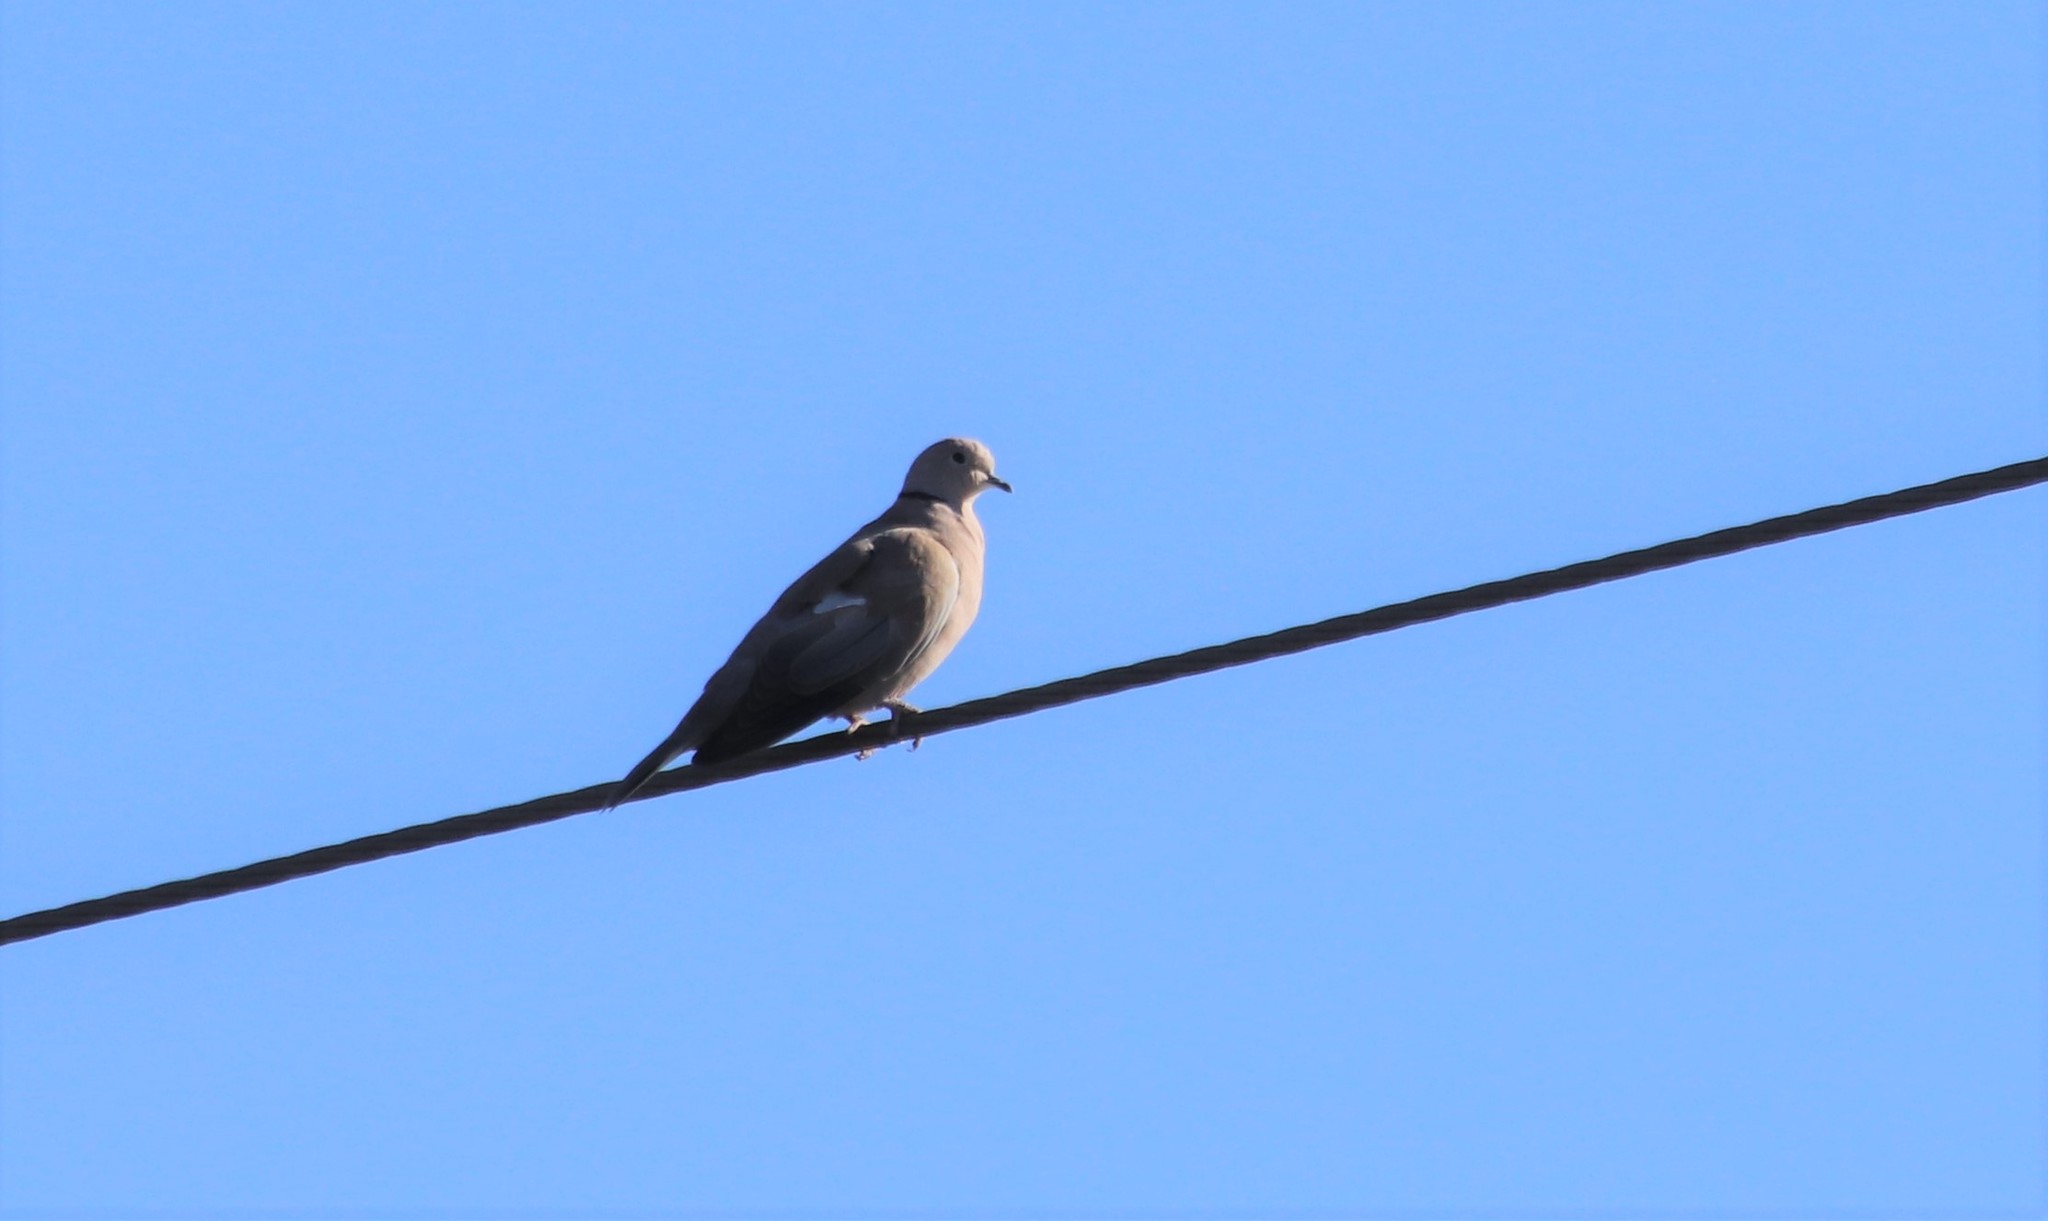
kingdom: Animalia
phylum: Chordata
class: Aves
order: Columbiformes
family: Columbidae
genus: Streptopelia
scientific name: Streptopelia decaocto
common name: Eurasian collared dove
